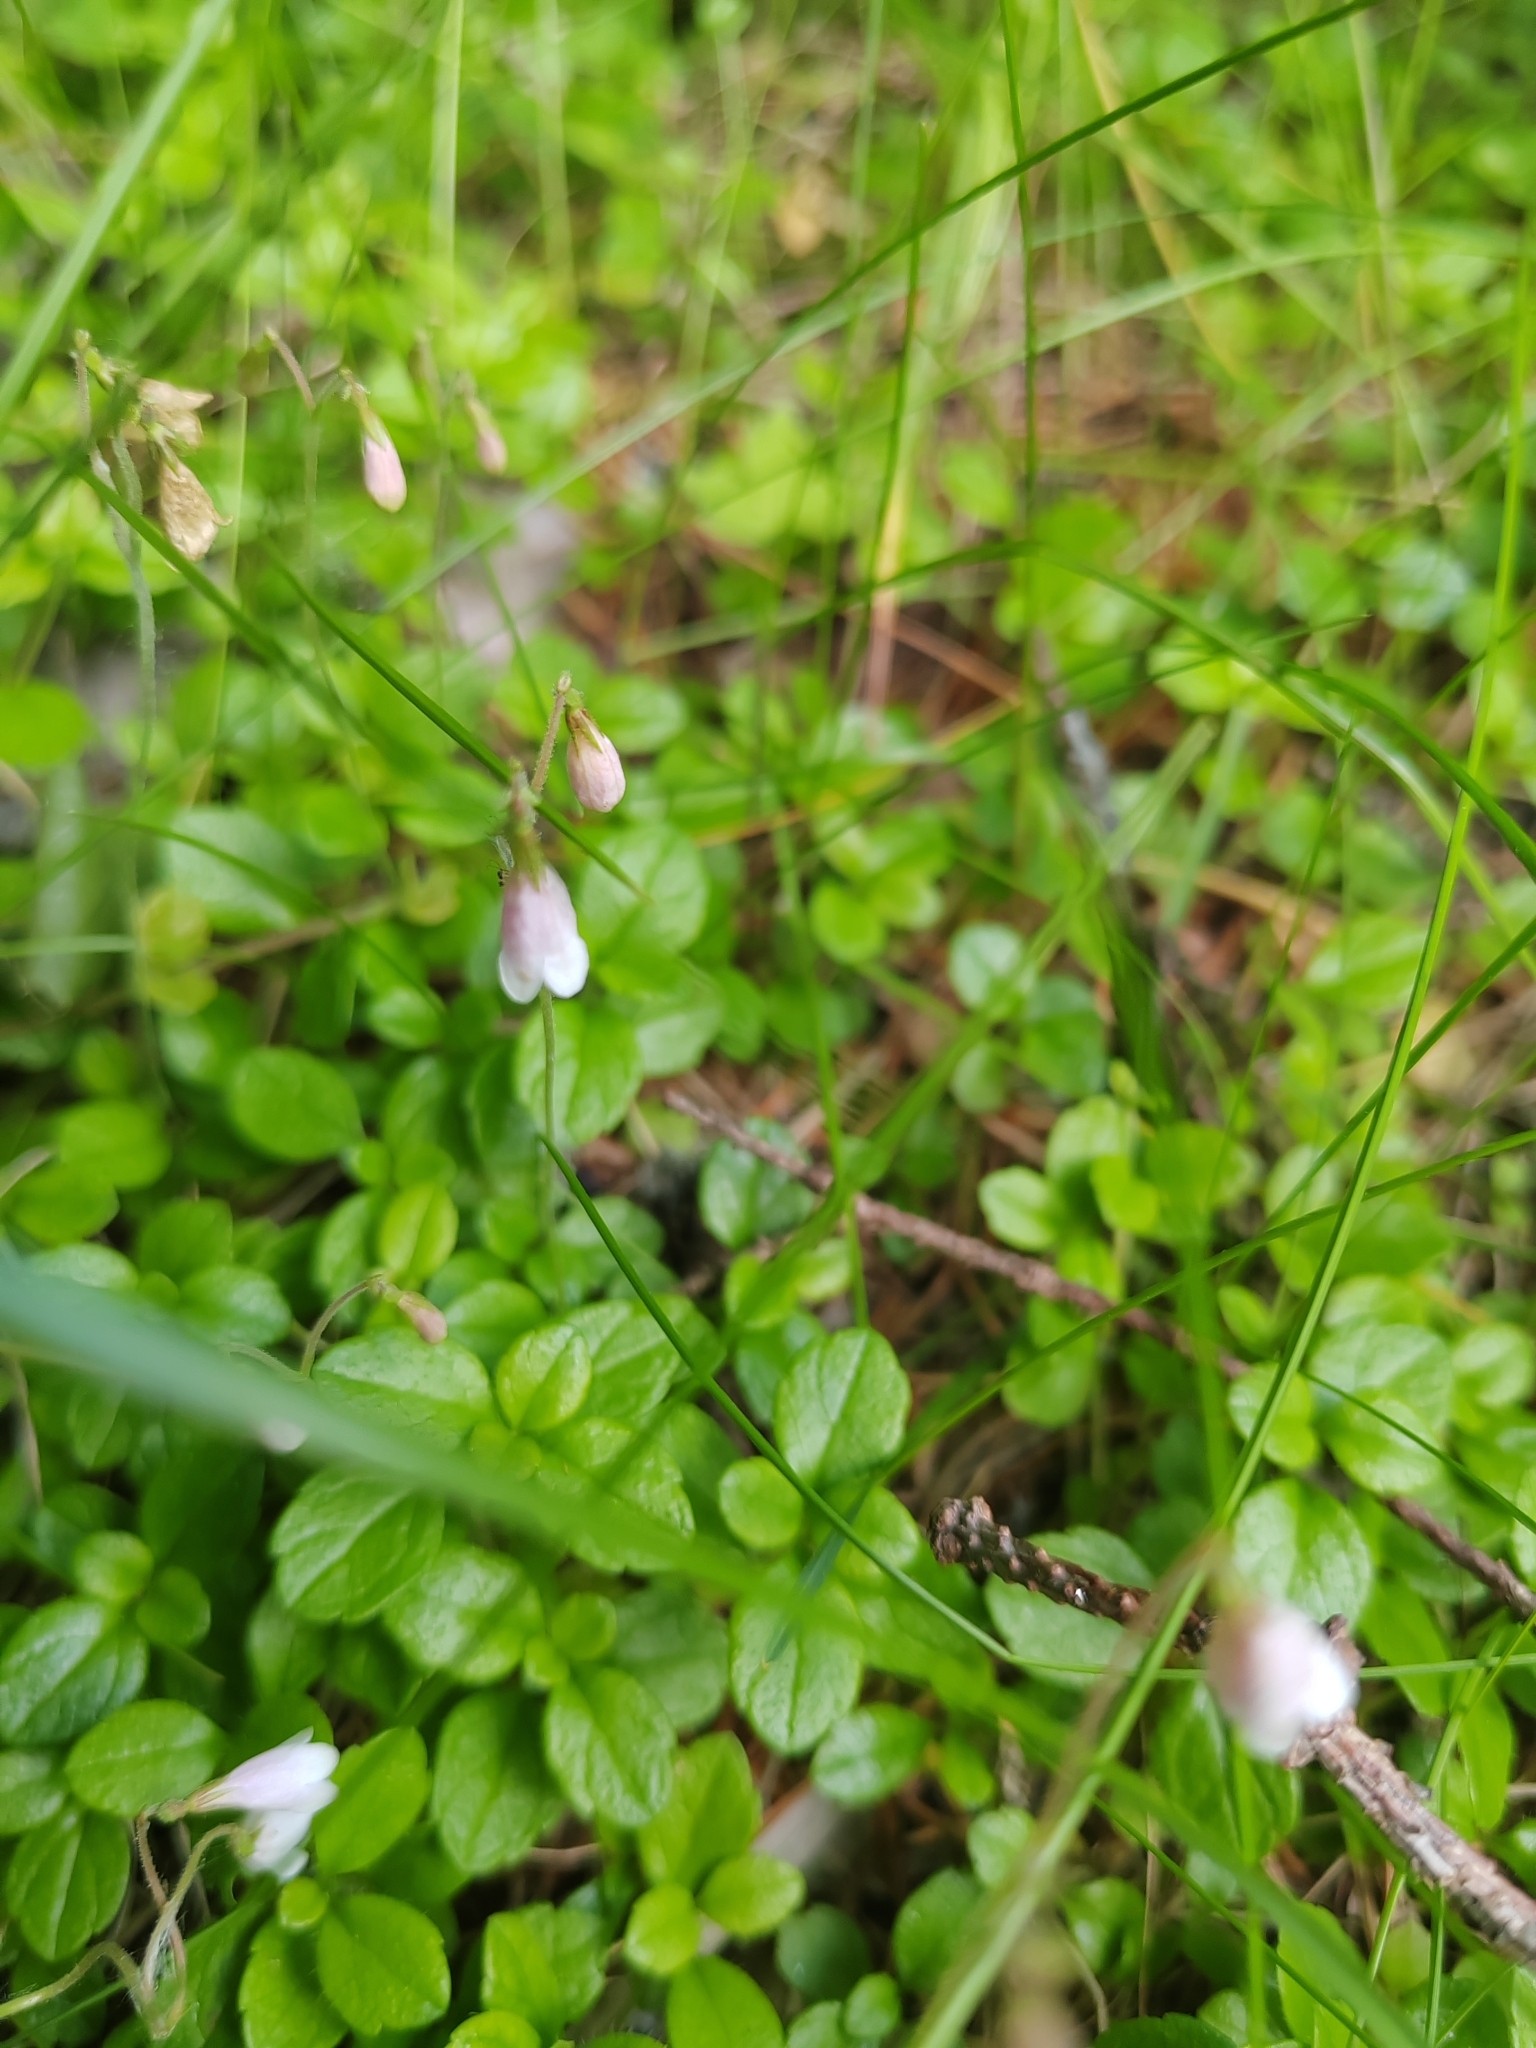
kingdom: Plantae
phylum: Tracheophyta
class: Magnoliopsida
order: Dipsacales
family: Caprifoliaceae
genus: Linnaea
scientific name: Linnaea borealis
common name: Twinflower
